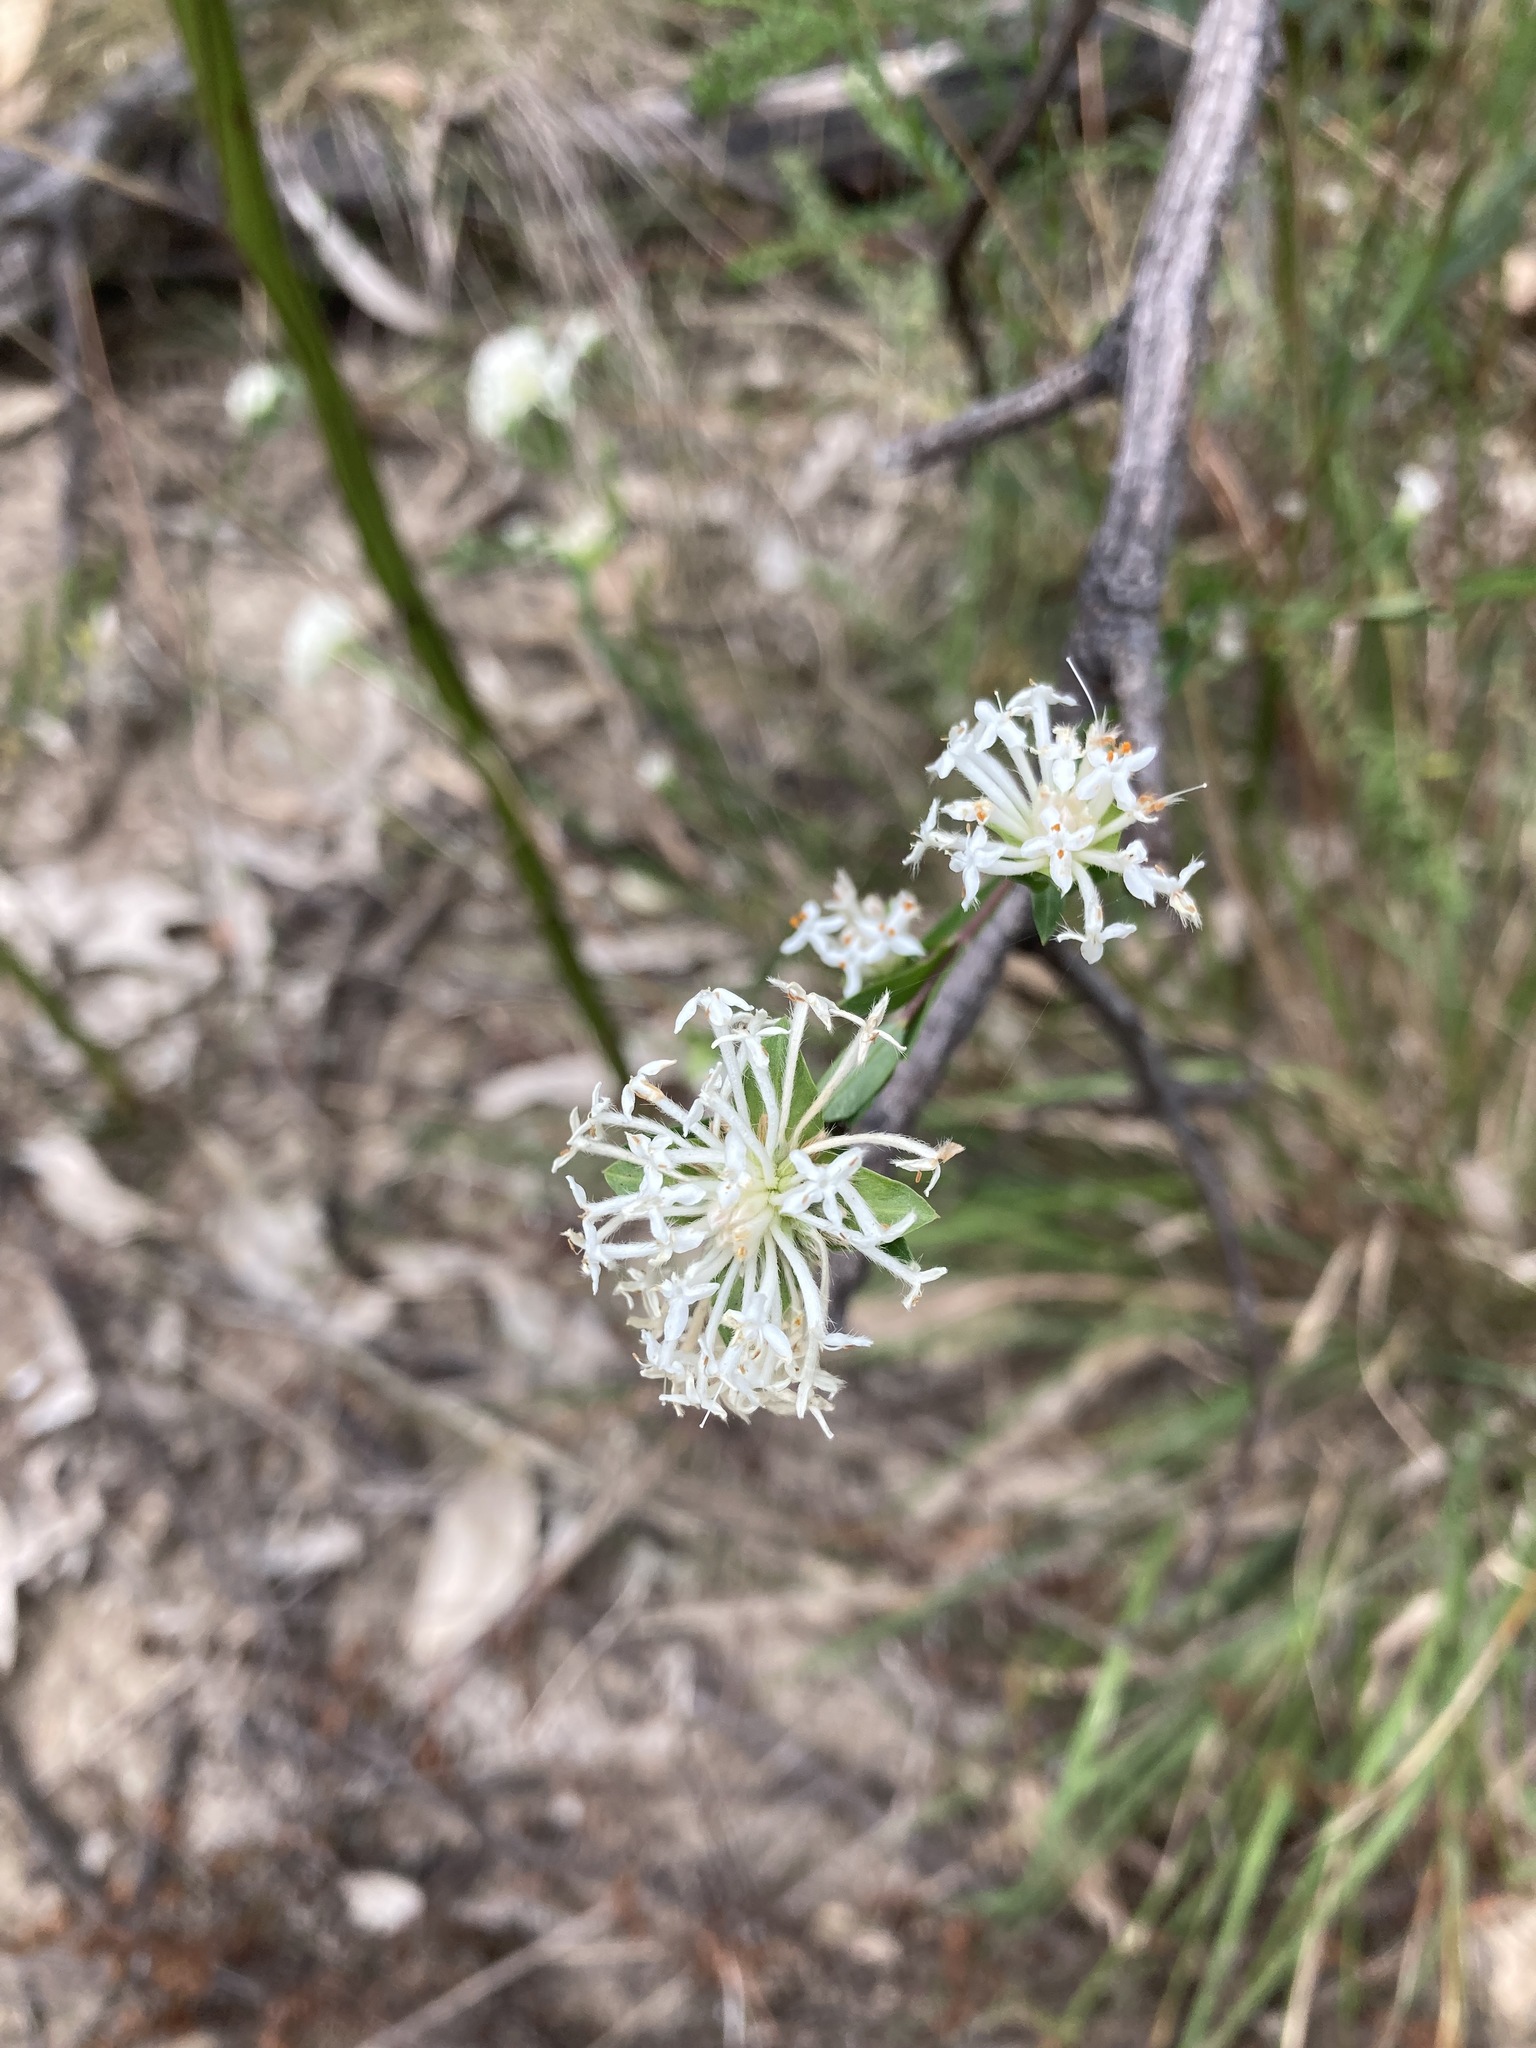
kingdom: Plantae
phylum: Tracheophyta
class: Magnoliopsida
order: Malvales
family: Thymelaeaceae
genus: Pimelea
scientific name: Pimelea linifolia
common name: Queen-of-the-bush
